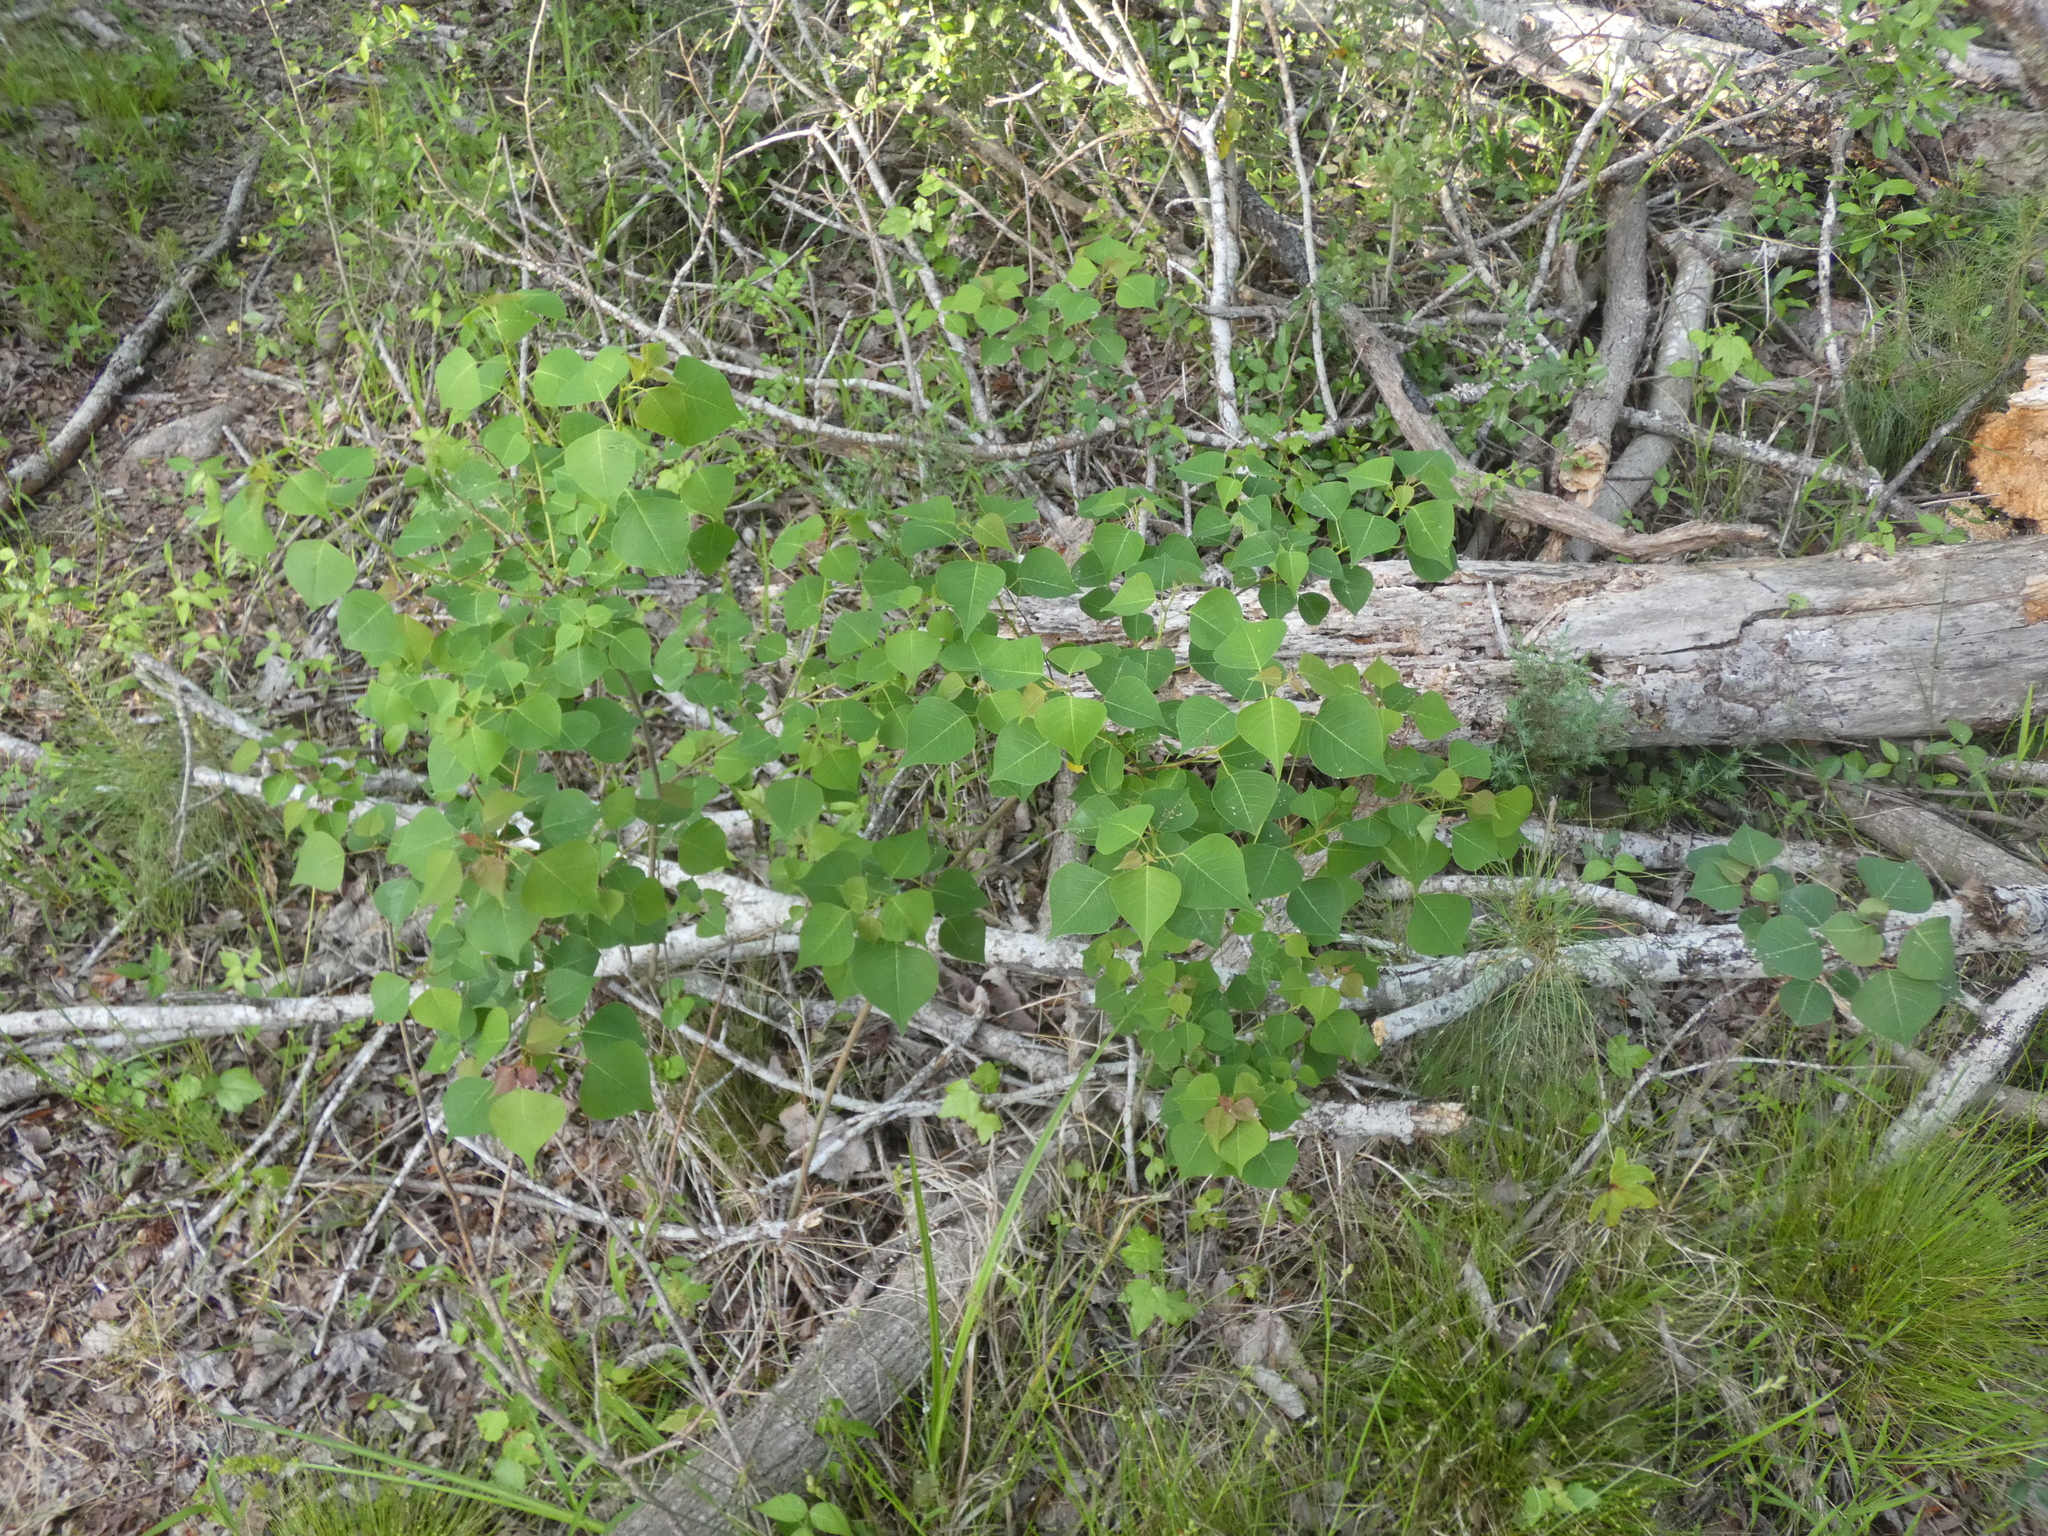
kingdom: Plantae
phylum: Tracheophyta
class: Magnoliopsida
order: Malpighiales
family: Euphorbiaceae
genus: Triadica
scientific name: Triadica sebifera
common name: Chinese tallow
